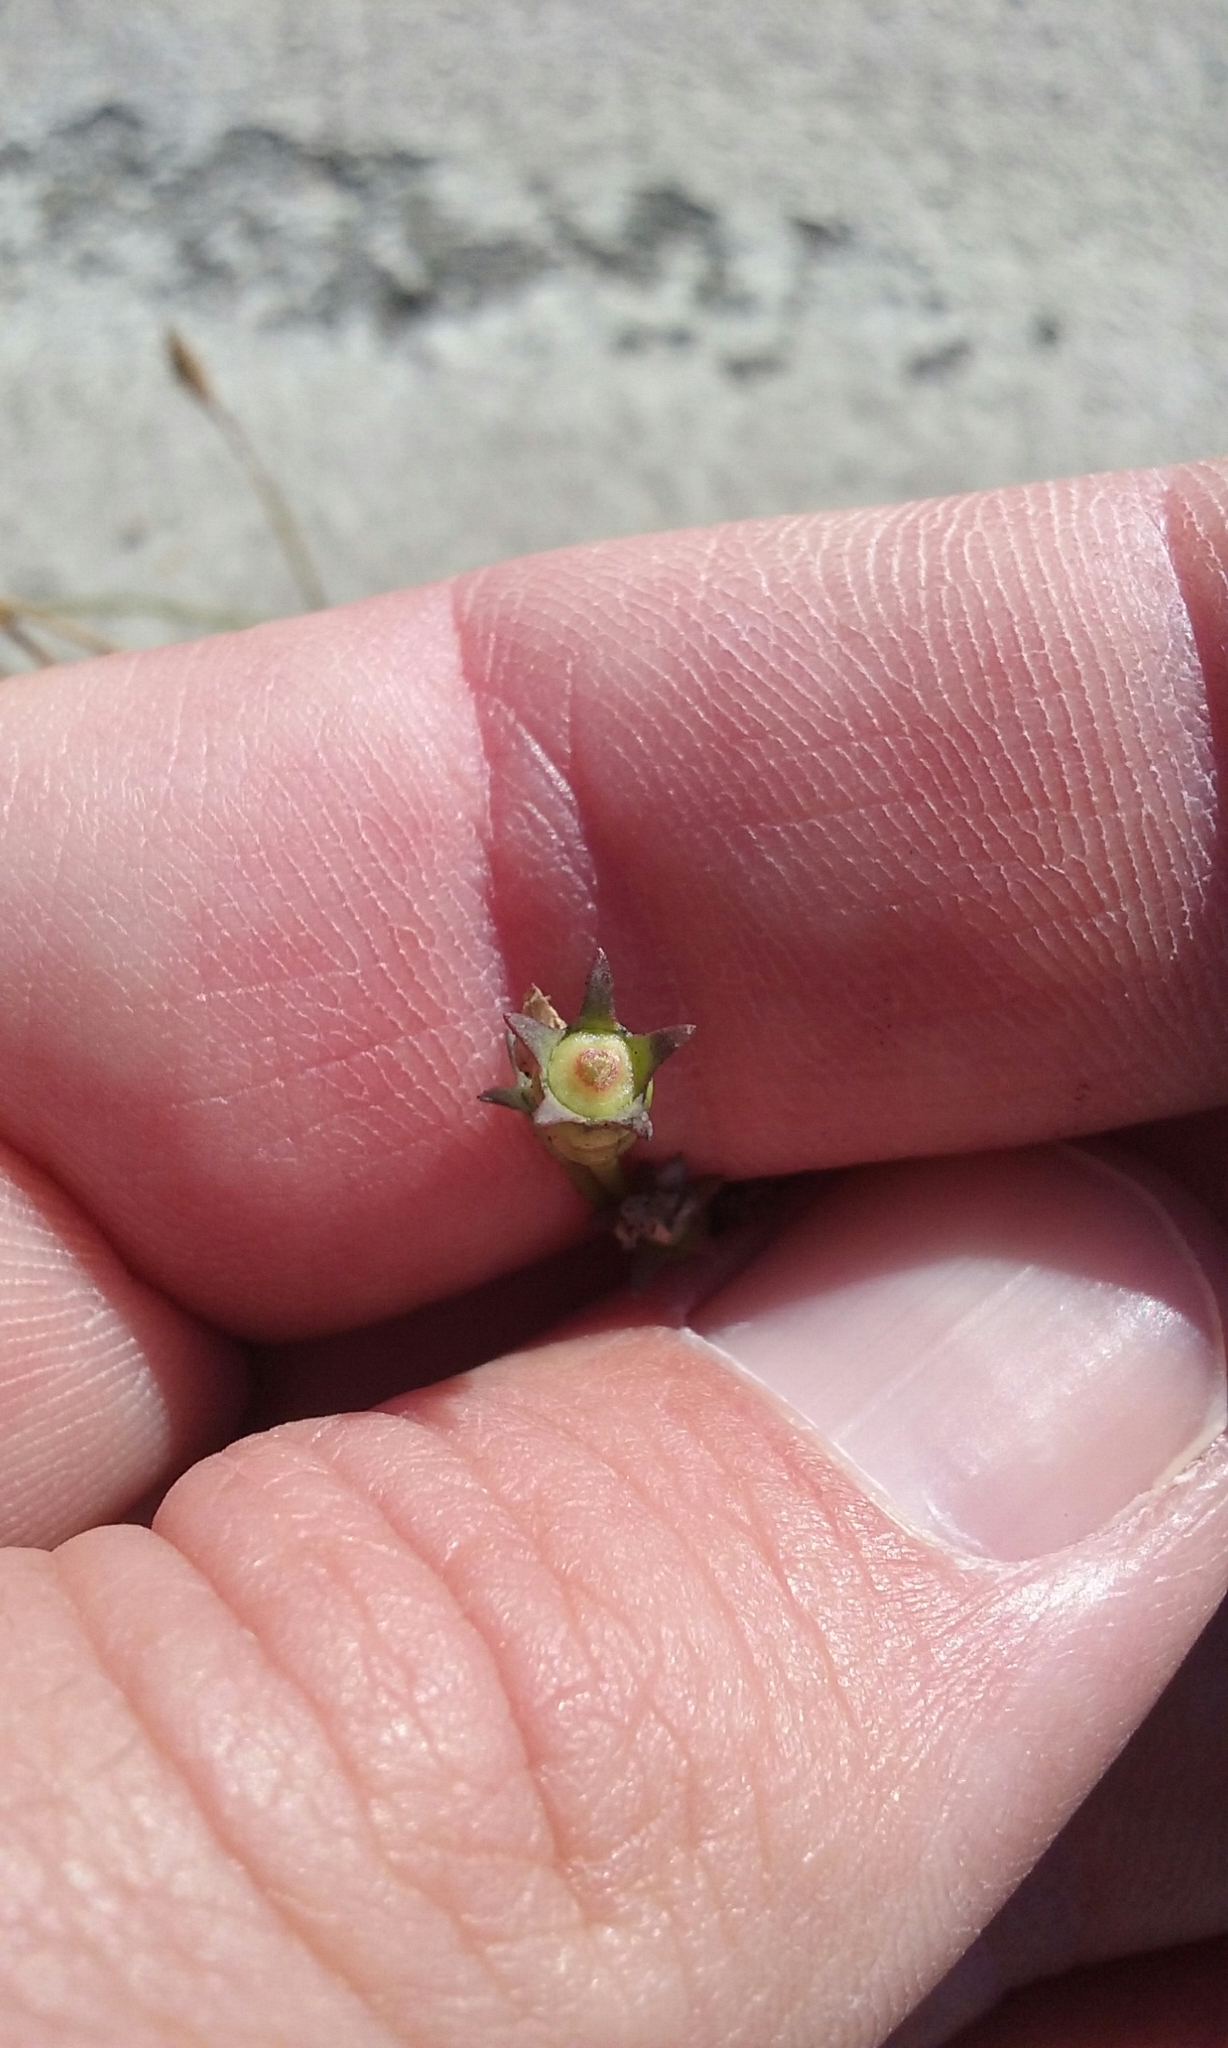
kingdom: Plantae
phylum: Tracheophyta
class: Magnoliopsida
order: Asterales
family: Campanulaceae
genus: Wahlenbergia
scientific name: Wahlenbergia marginata
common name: Southern rockbell
